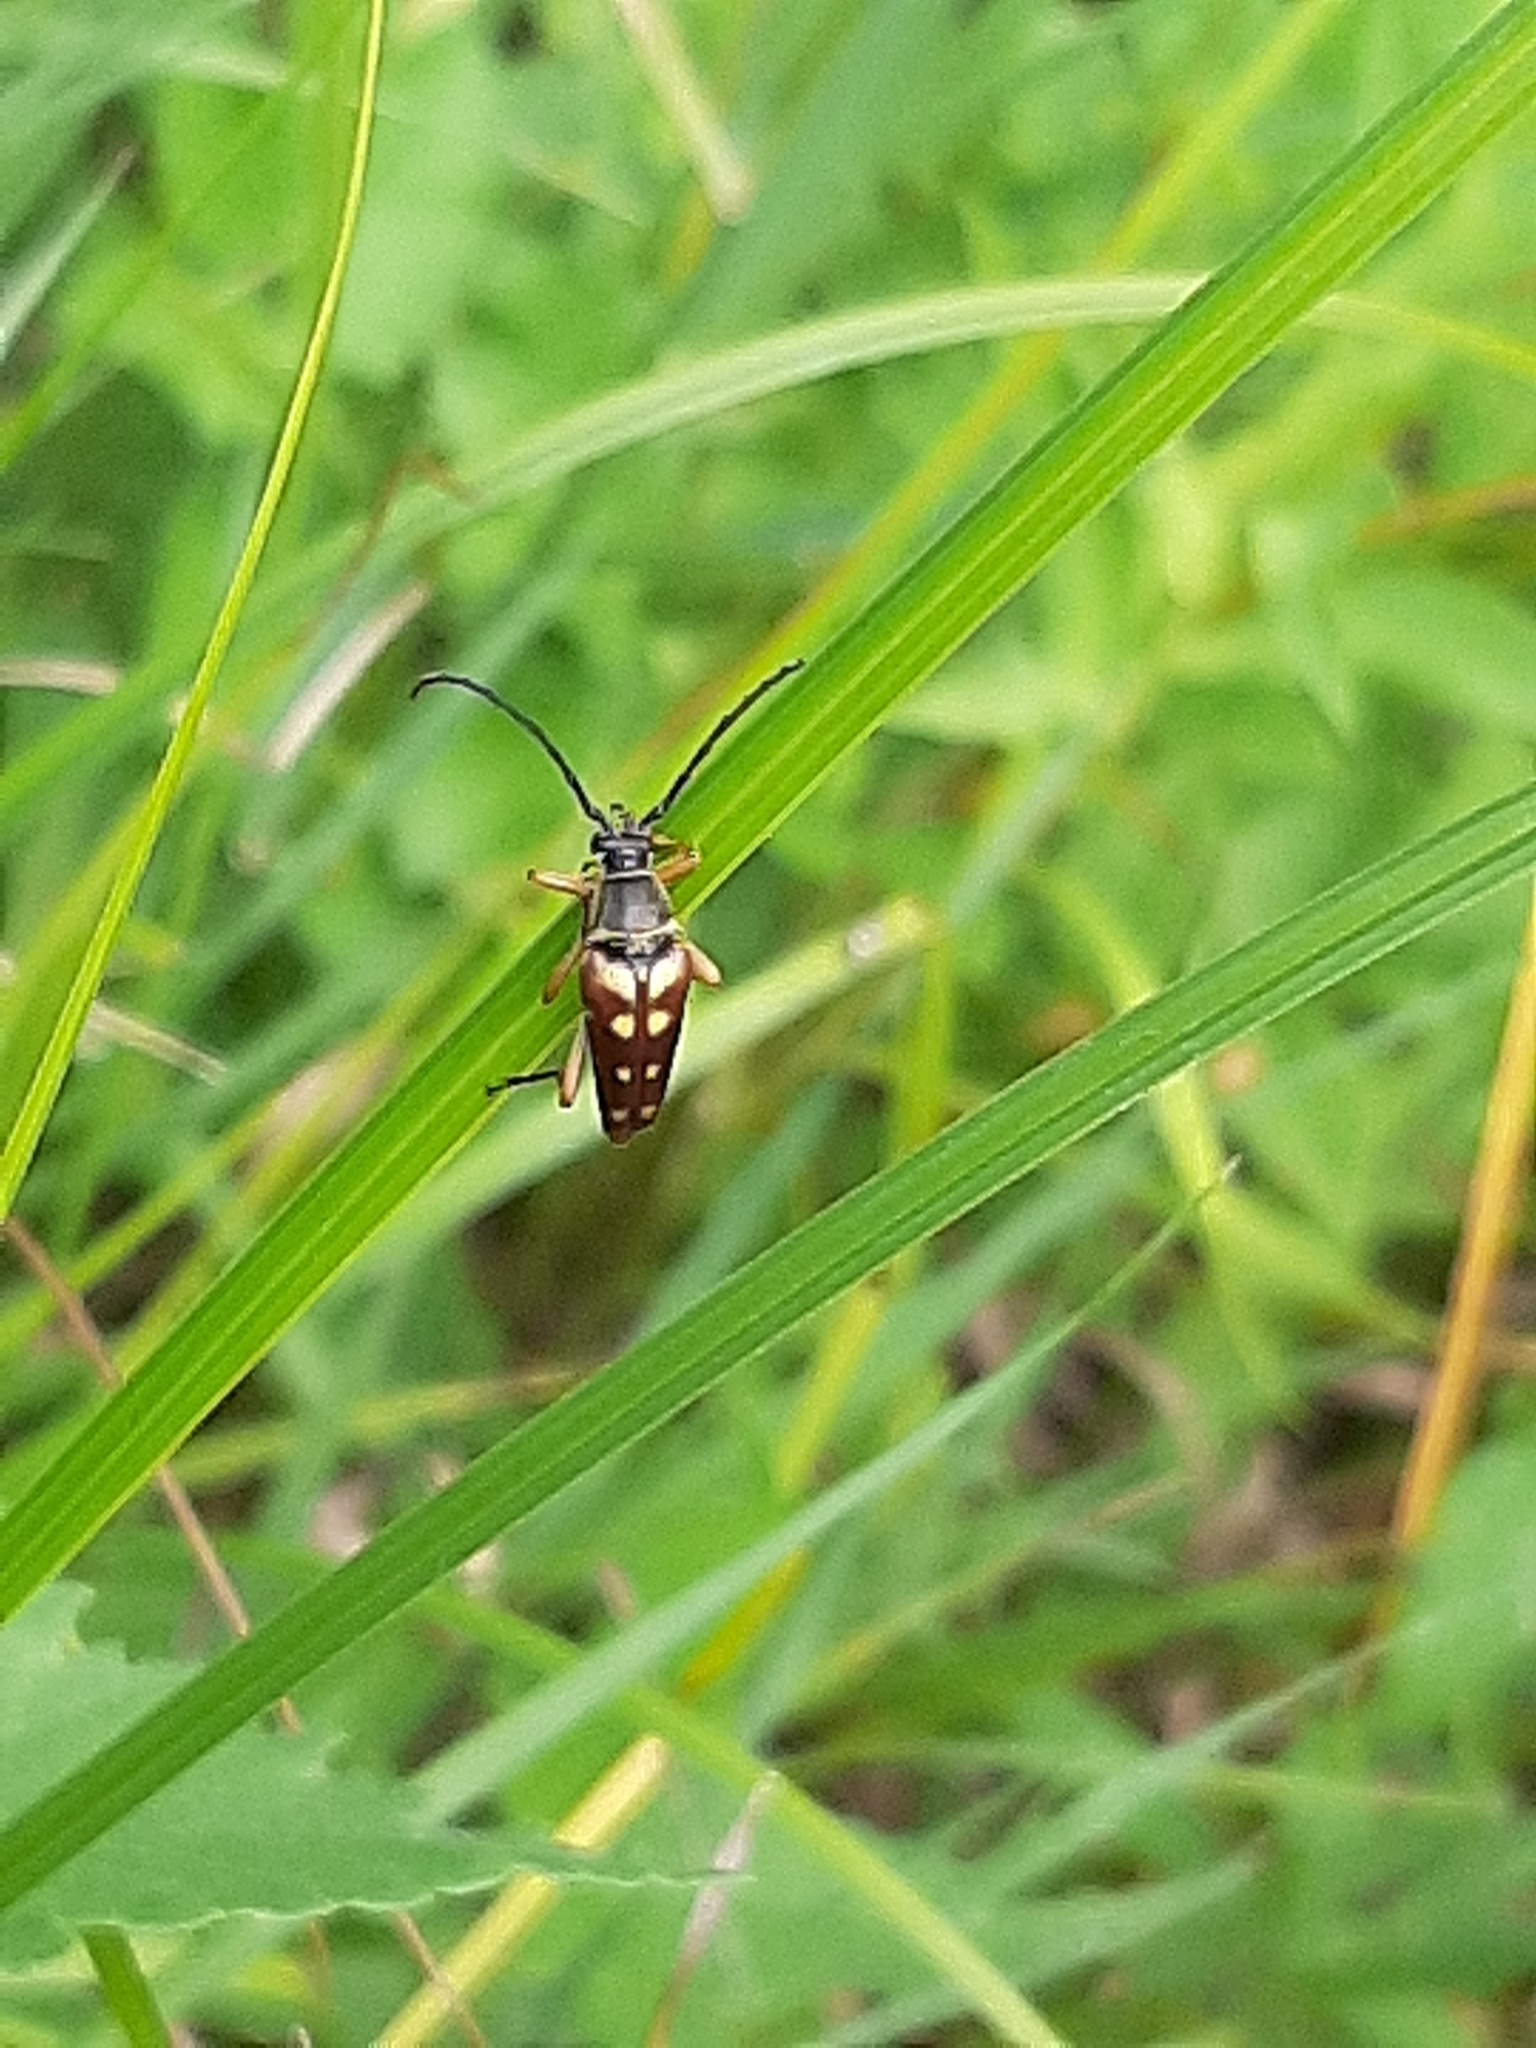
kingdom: Animalia
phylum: Arthropoda
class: Insecta
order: Coleoptera
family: Cerambycidae
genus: Typocerus
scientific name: Typocerus velutinus
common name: Banded longhorn beetle
